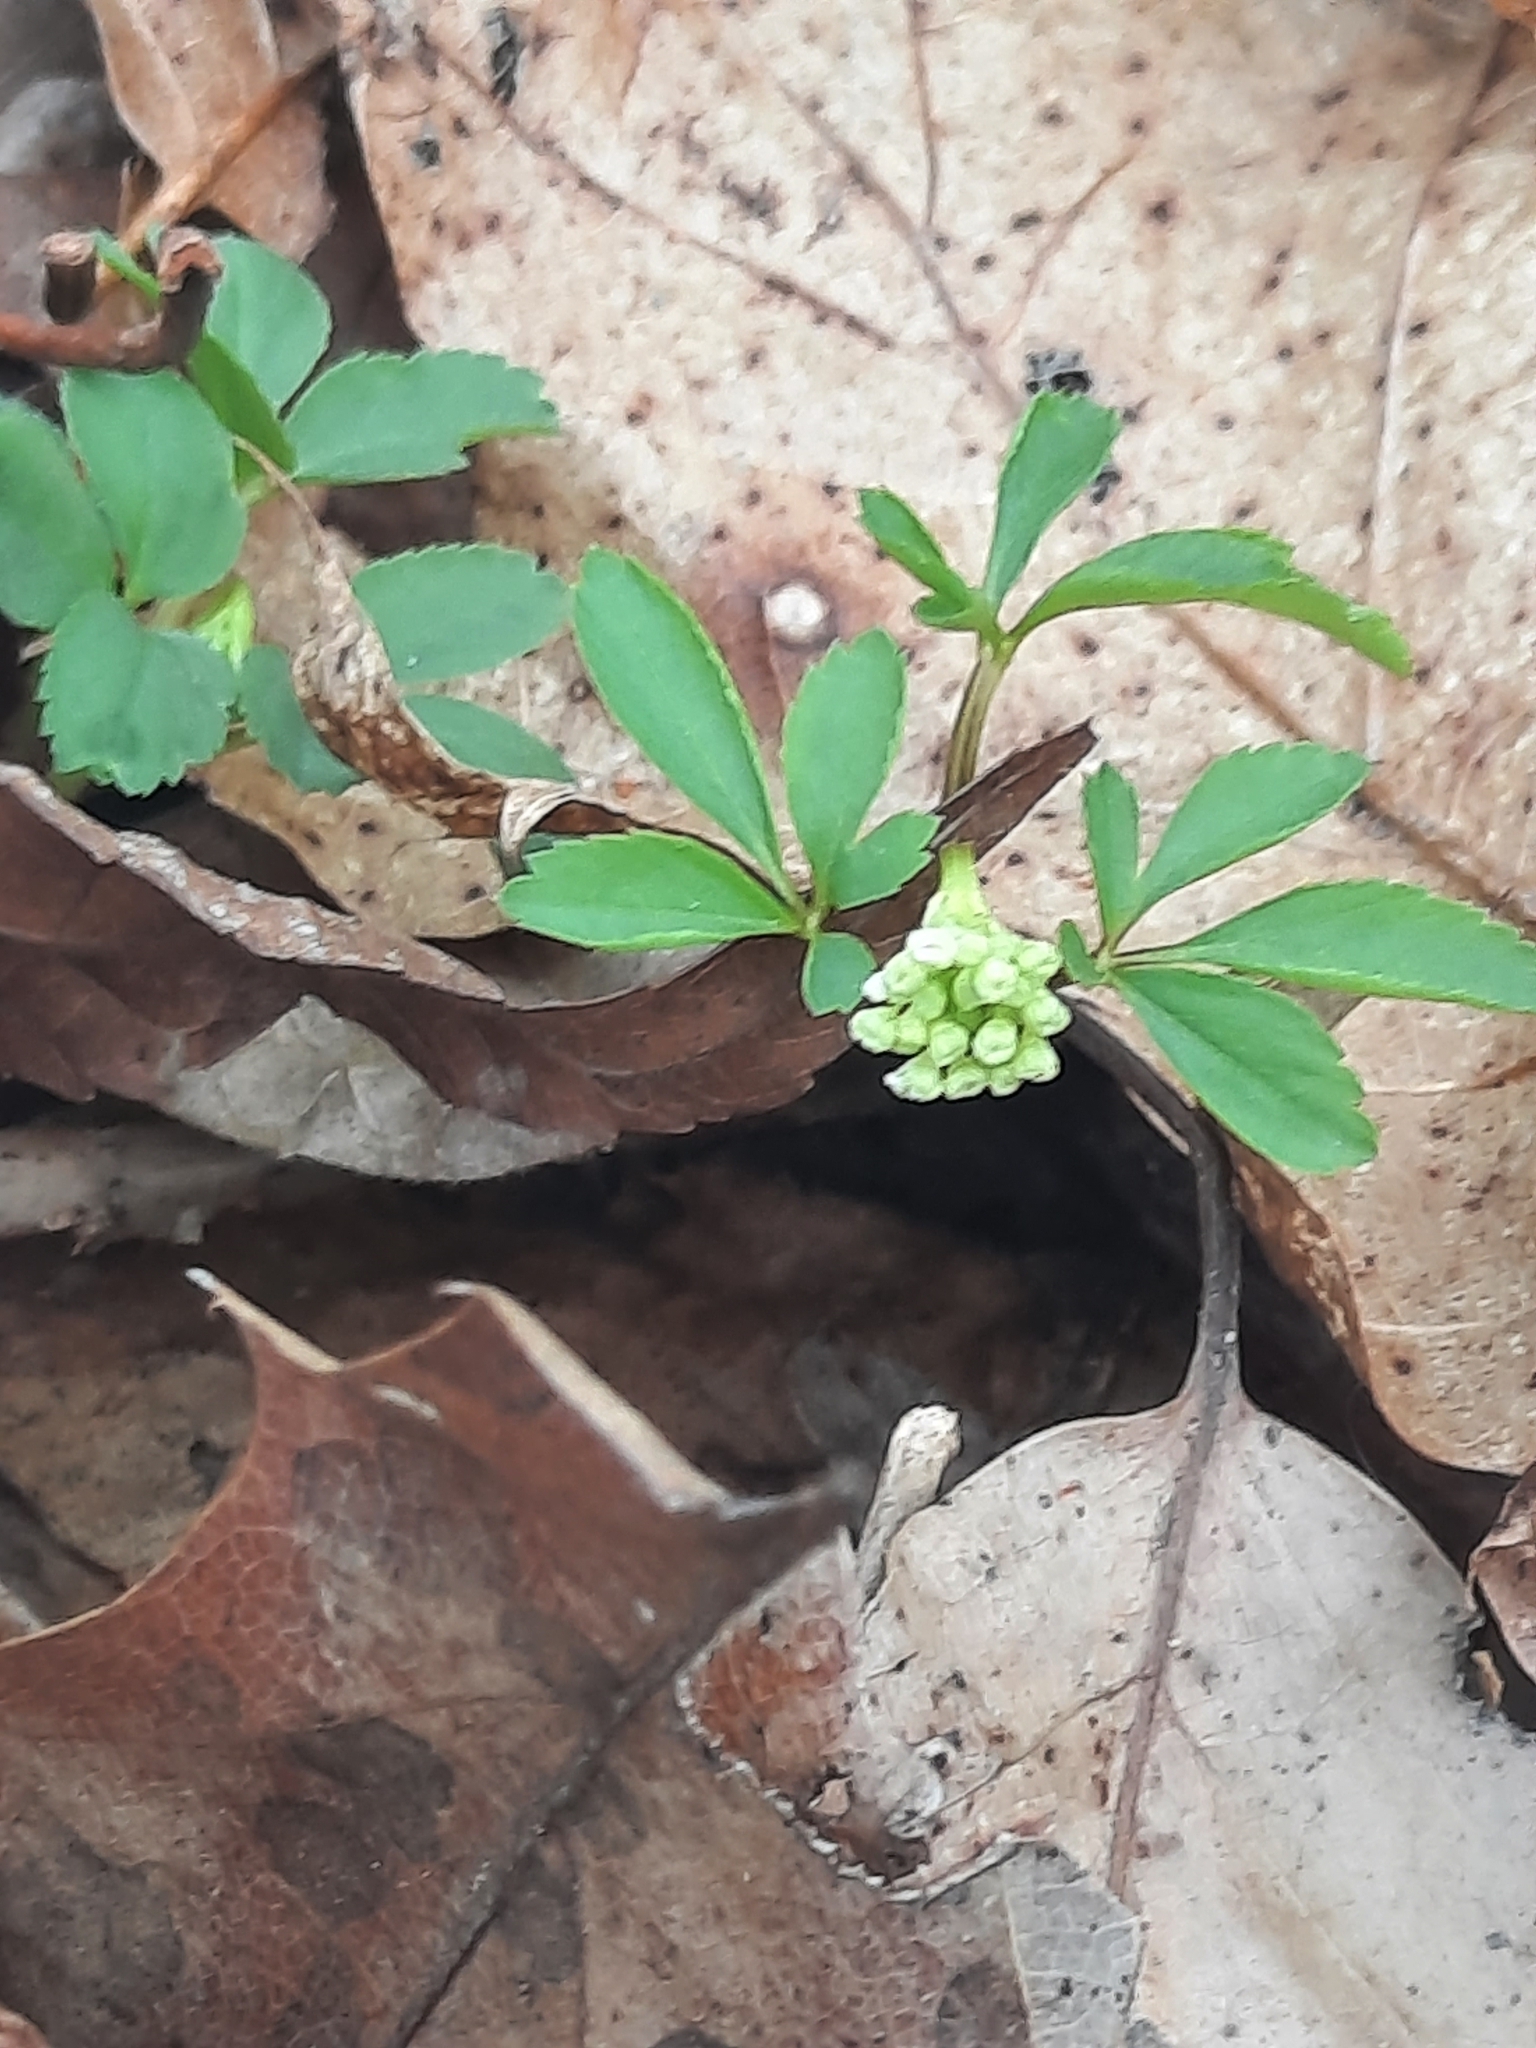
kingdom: Plantae
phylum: Tracheophyta
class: Magnoliopsida
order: Apiales
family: Araliaceae
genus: Panax
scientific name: Panax trifolius
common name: Dwarf ginseng
